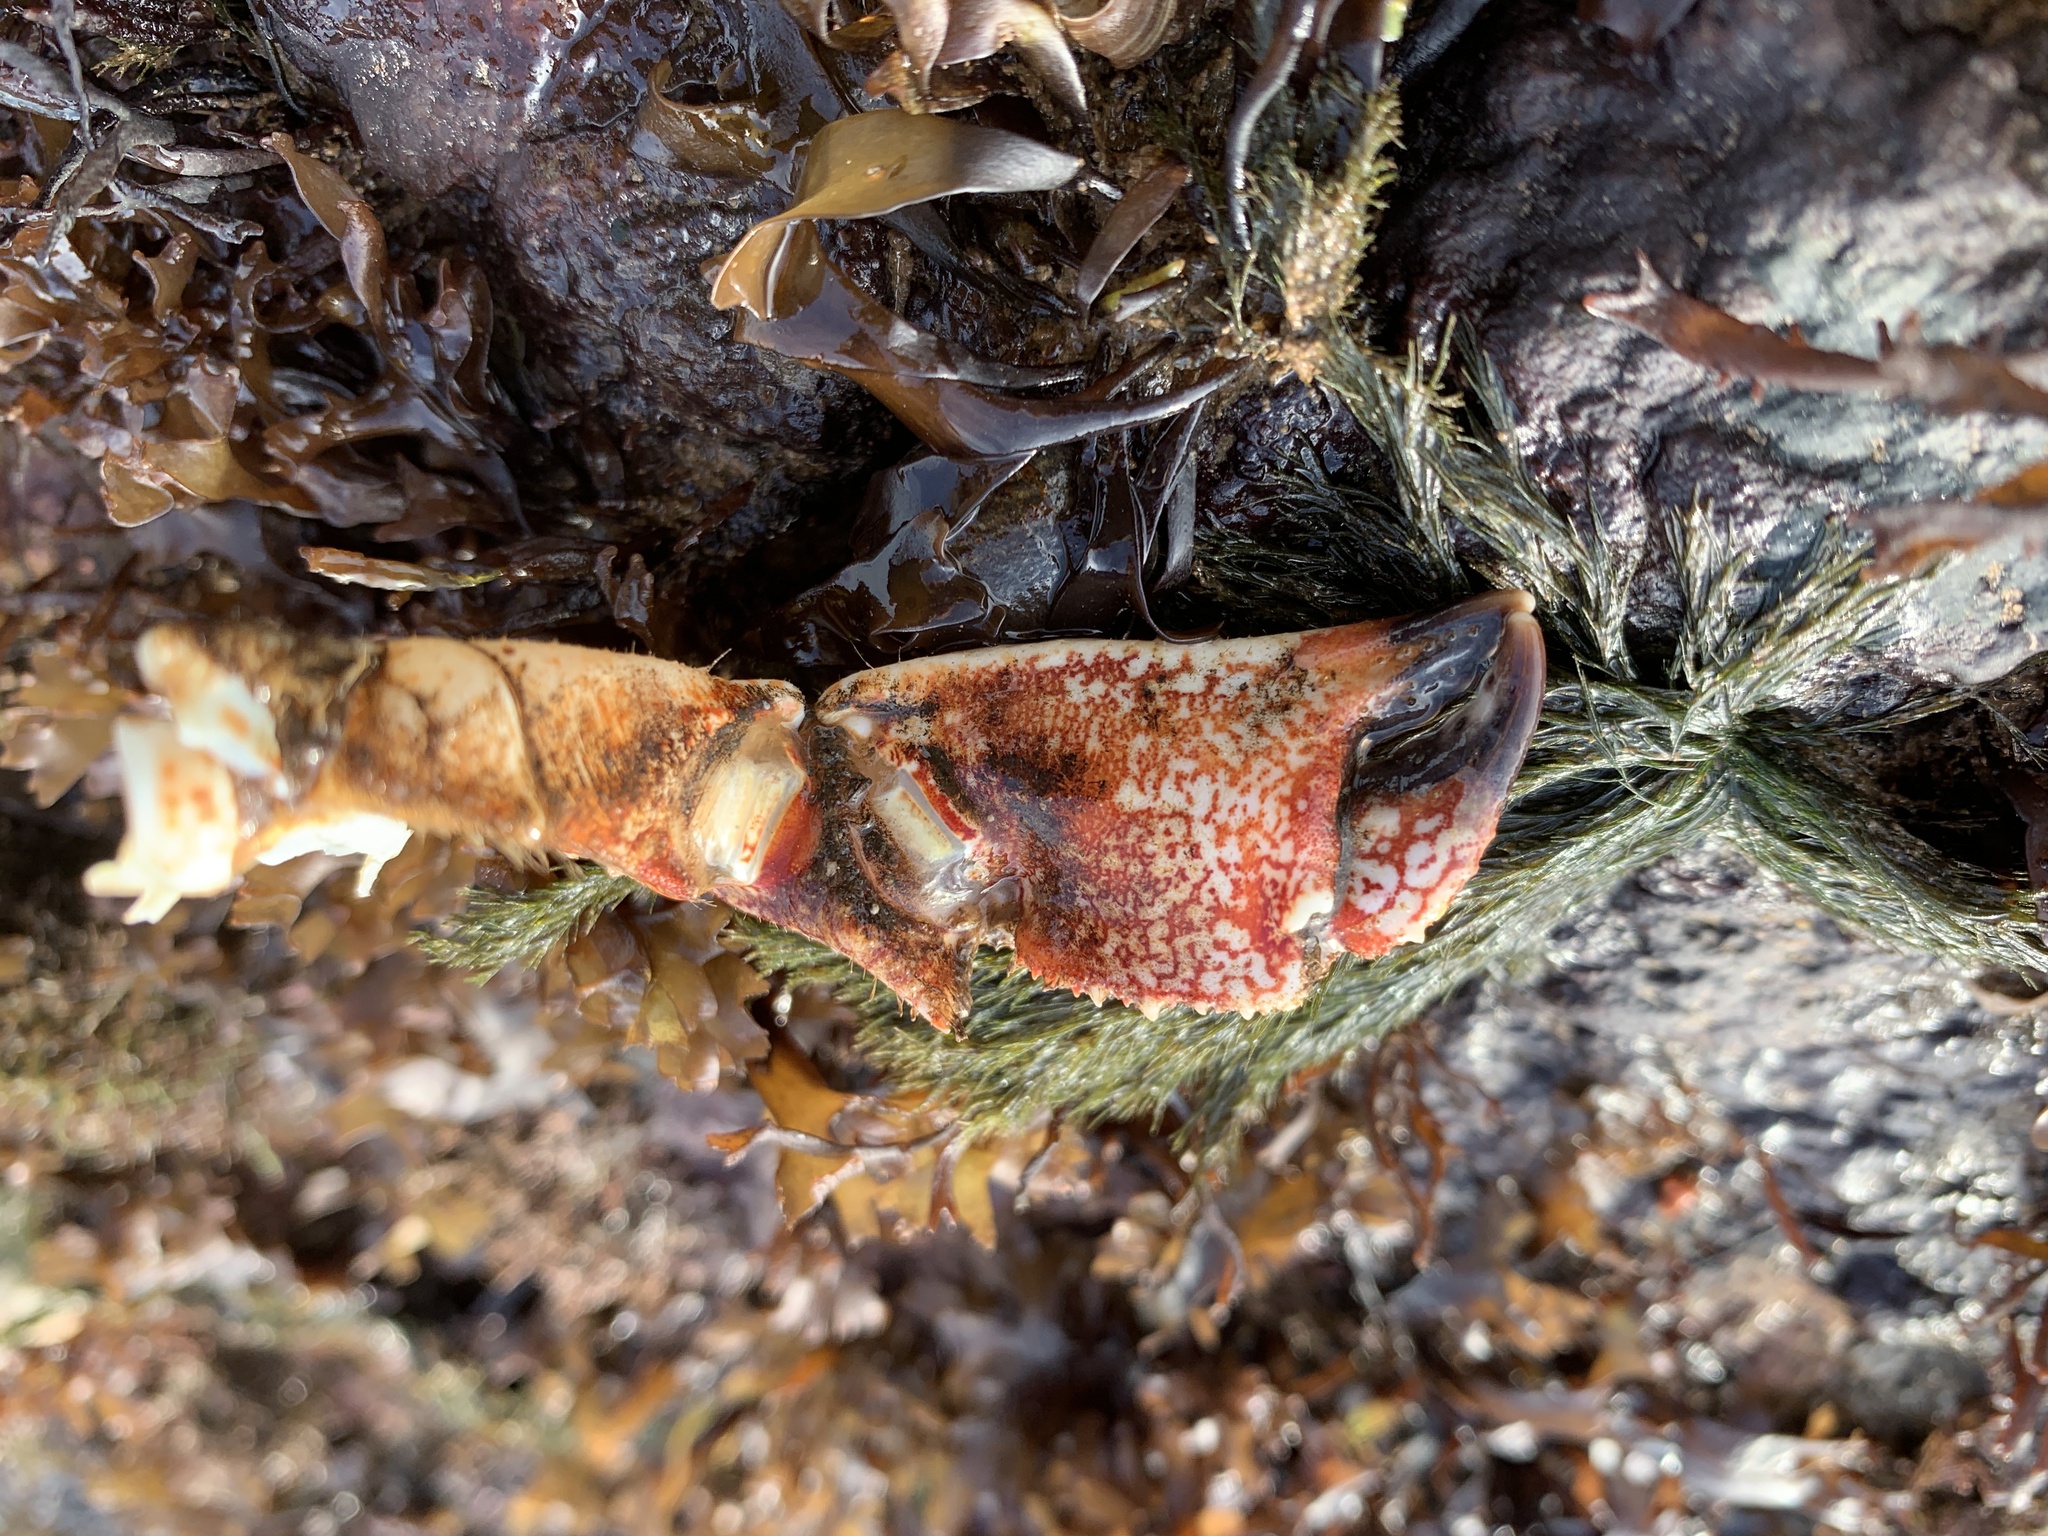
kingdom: Animalia
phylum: Arthropoda
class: Malacostraca
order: Decapoda
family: Cancridae
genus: Cancer
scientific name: Cancer borealis
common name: Jonah crab
